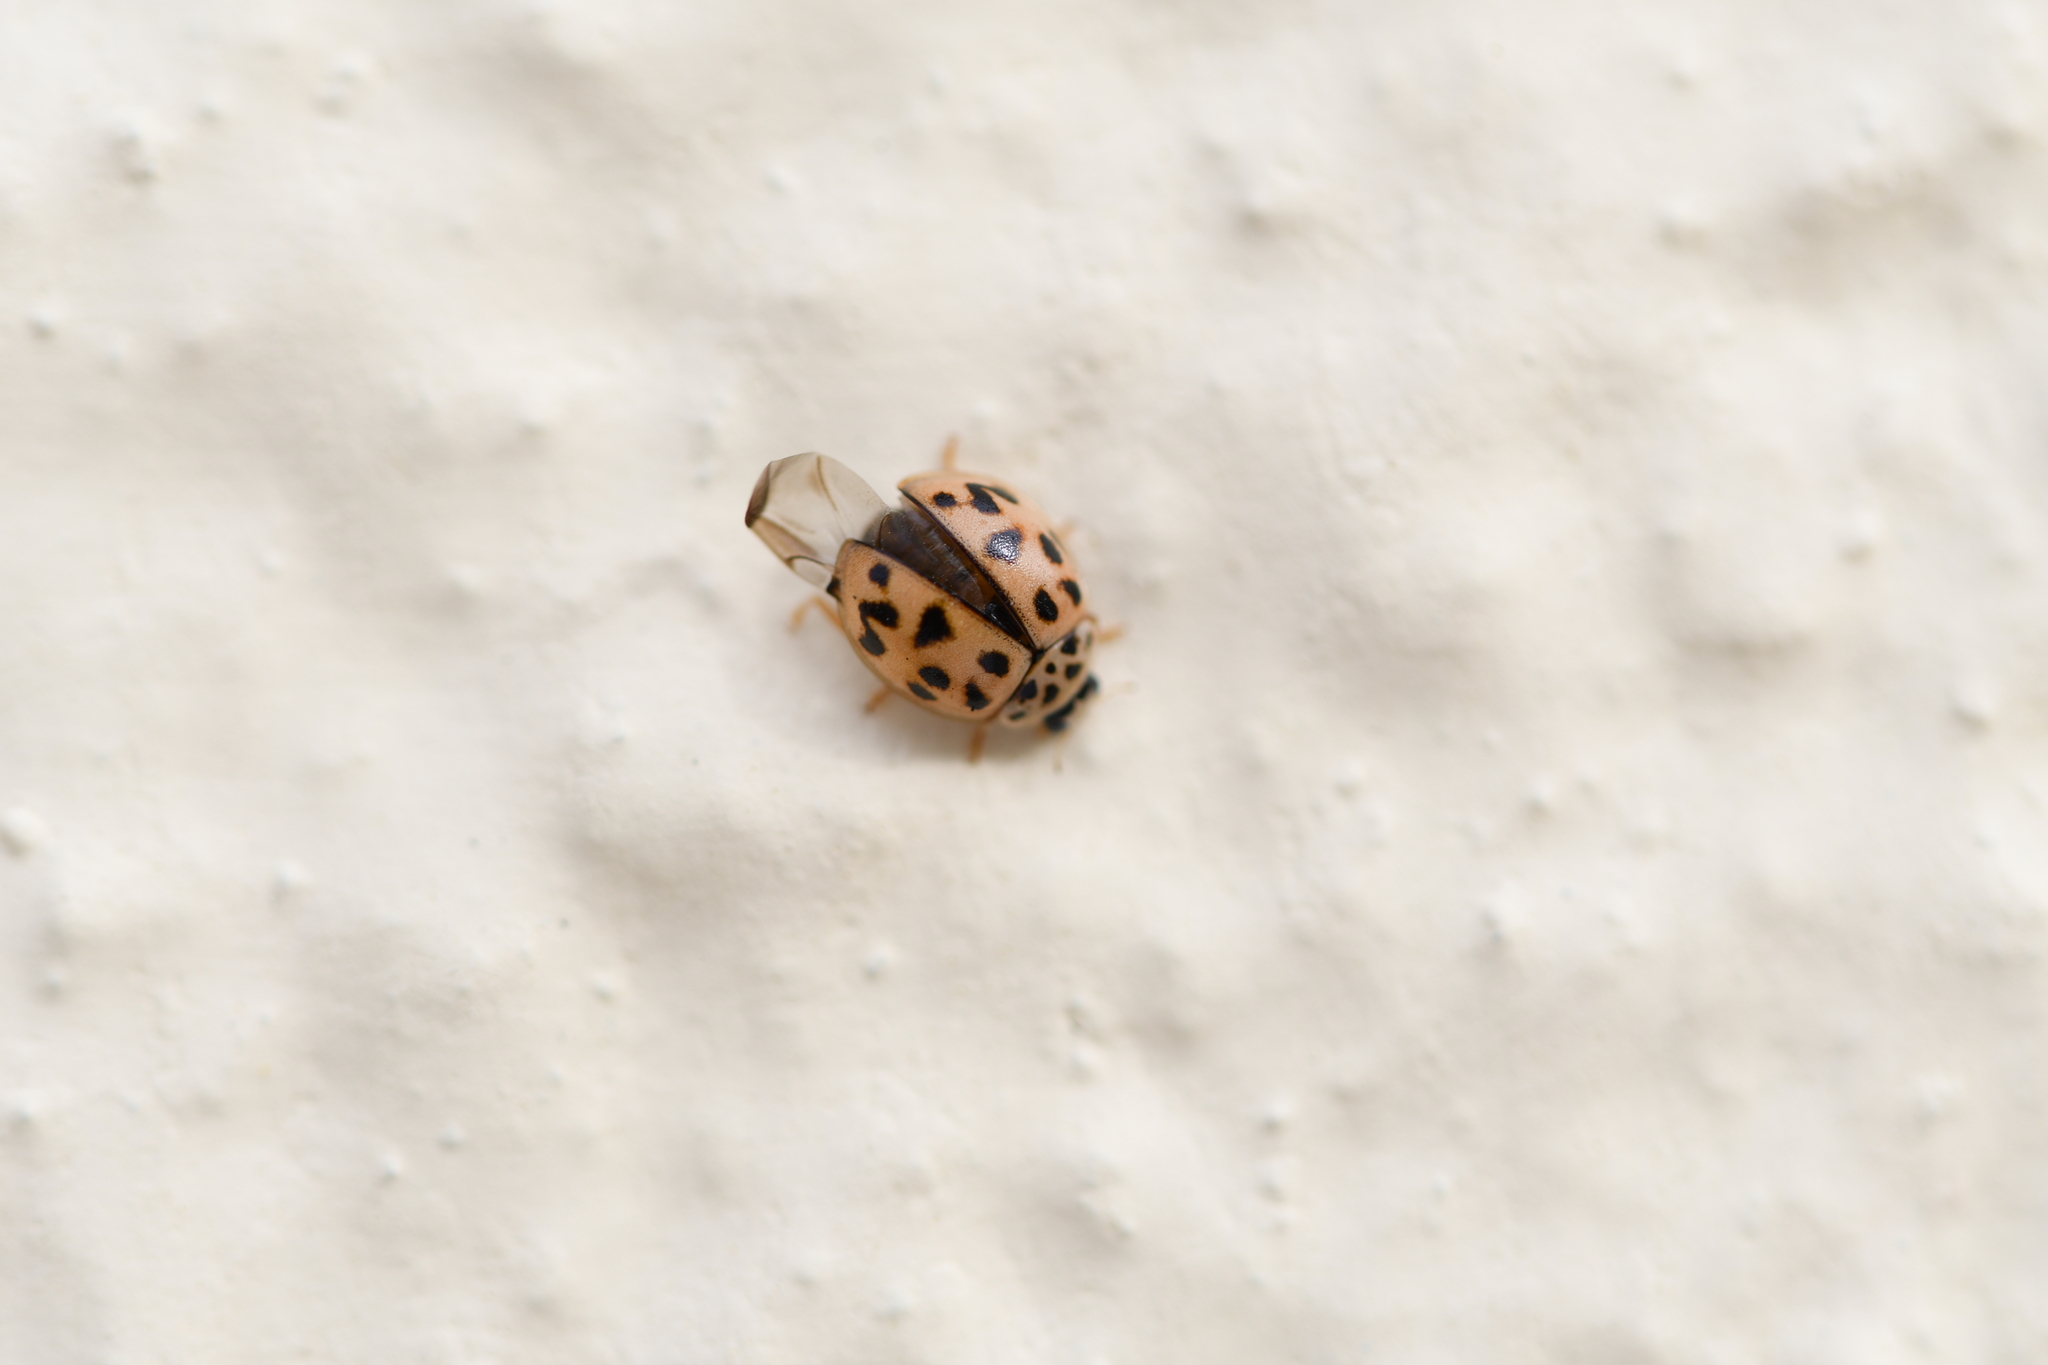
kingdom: Animalia
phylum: Arthropoda
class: Insecta
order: Coleoptera
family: Coccinellidae
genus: Oenopia
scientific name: Oenopia conglobata
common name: Ladybird beetle
